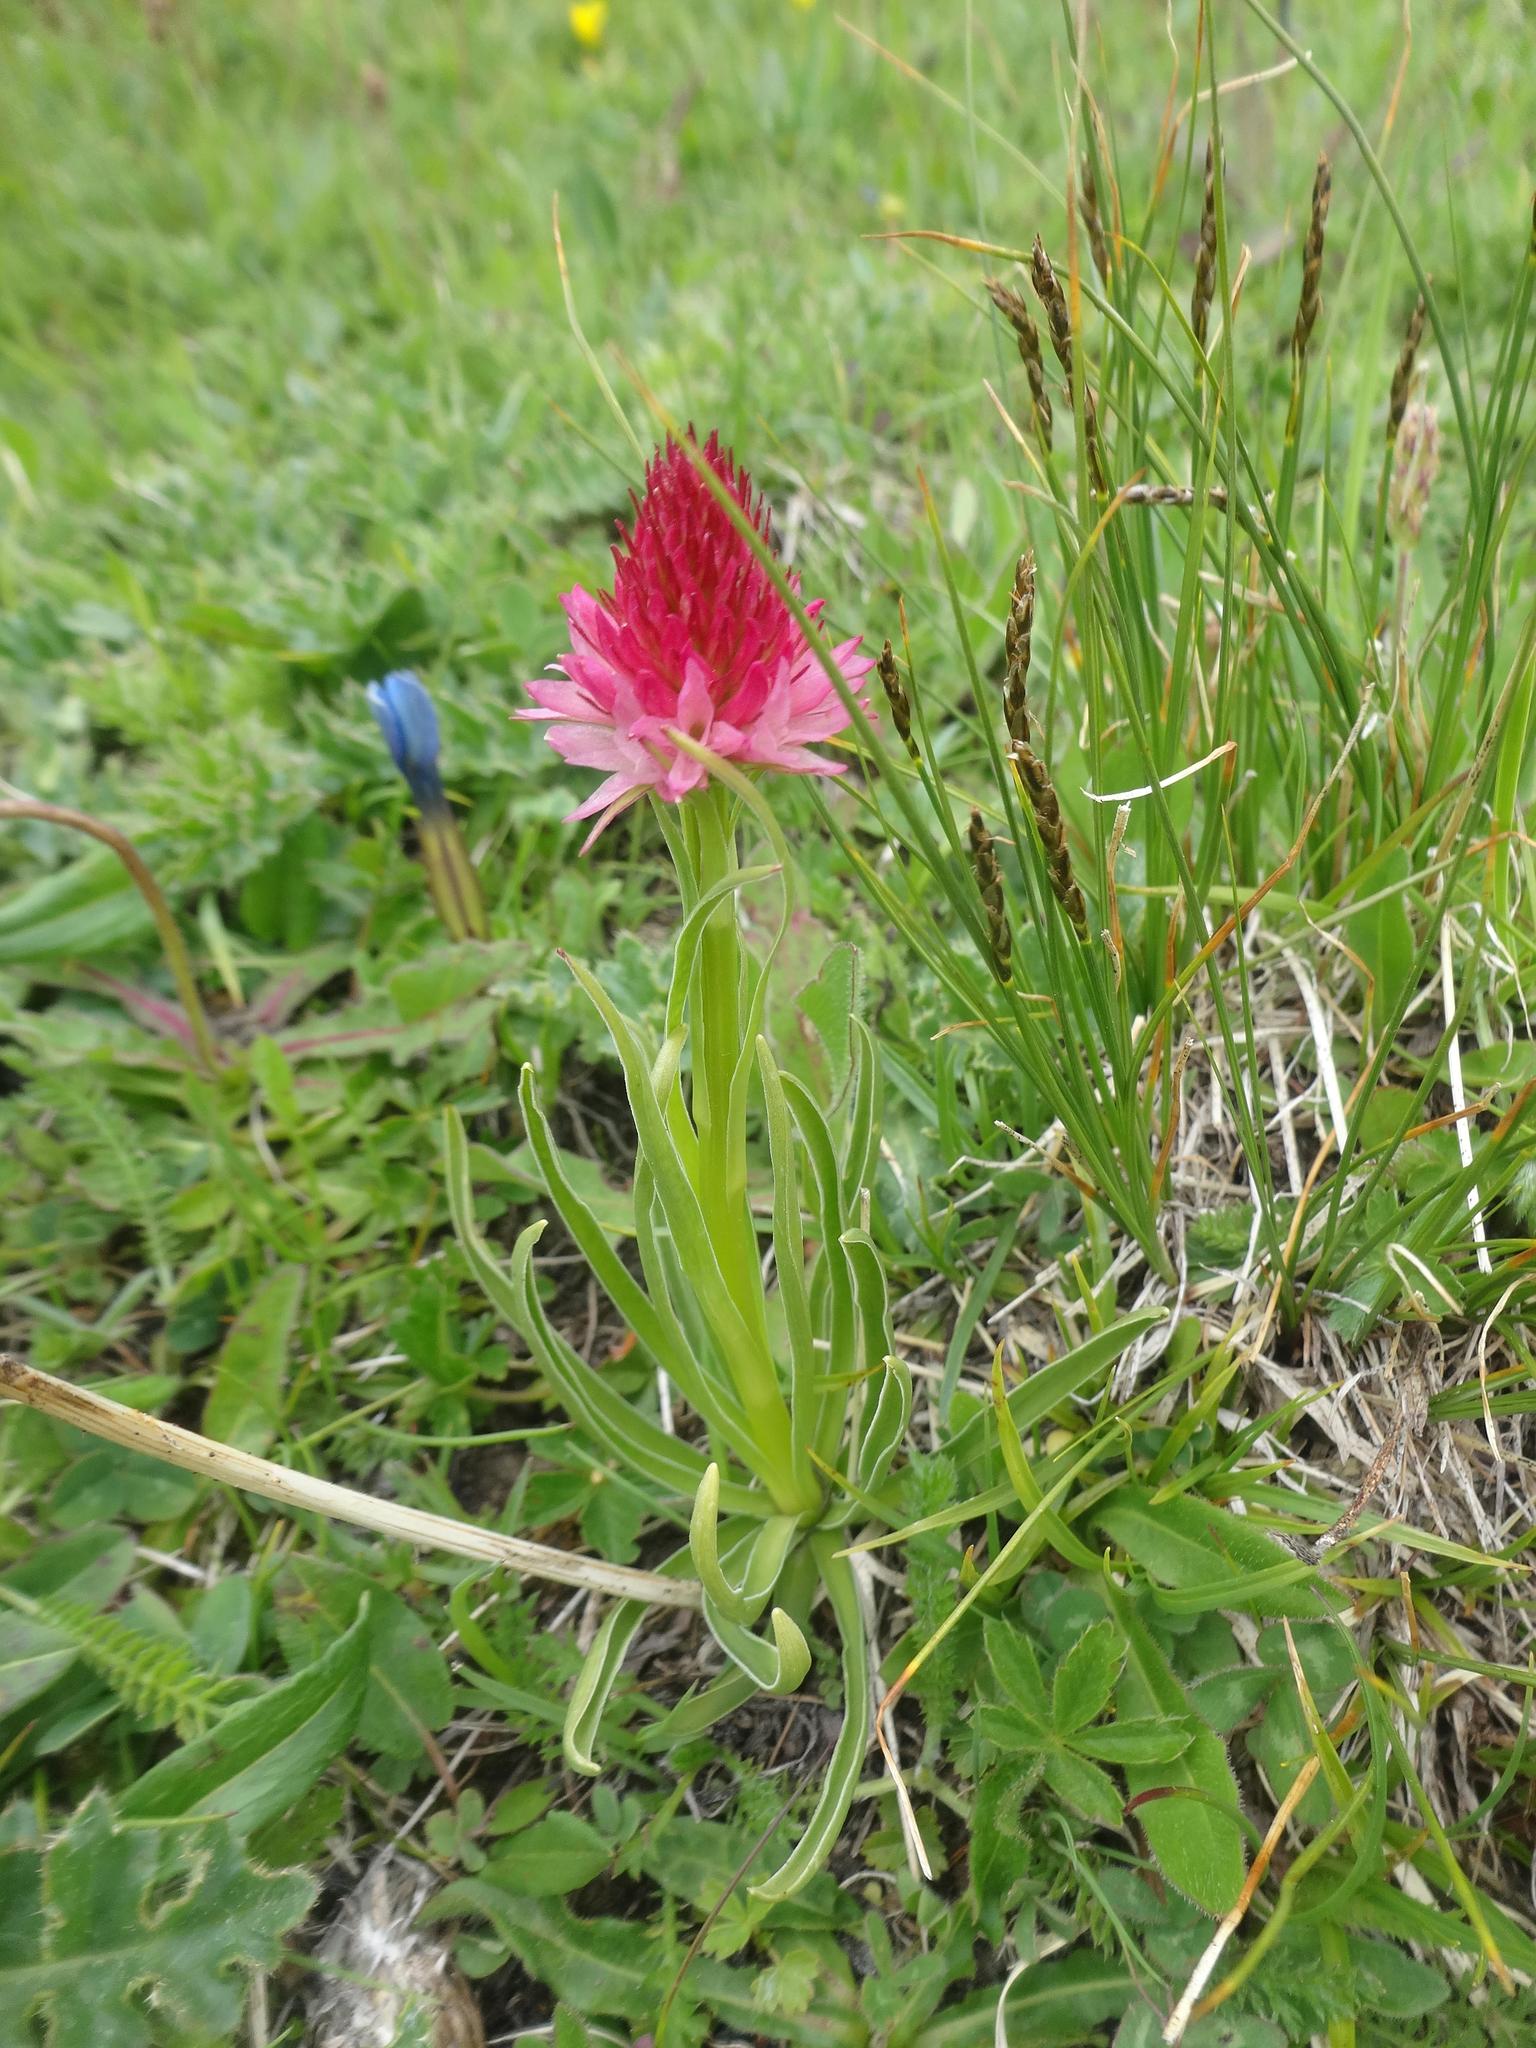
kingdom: Plantae
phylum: Tracheophyta
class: Liliopsida
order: Asparagales
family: Orchidaceae
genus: Gymnadenia
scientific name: Gymnadenia corneliana
